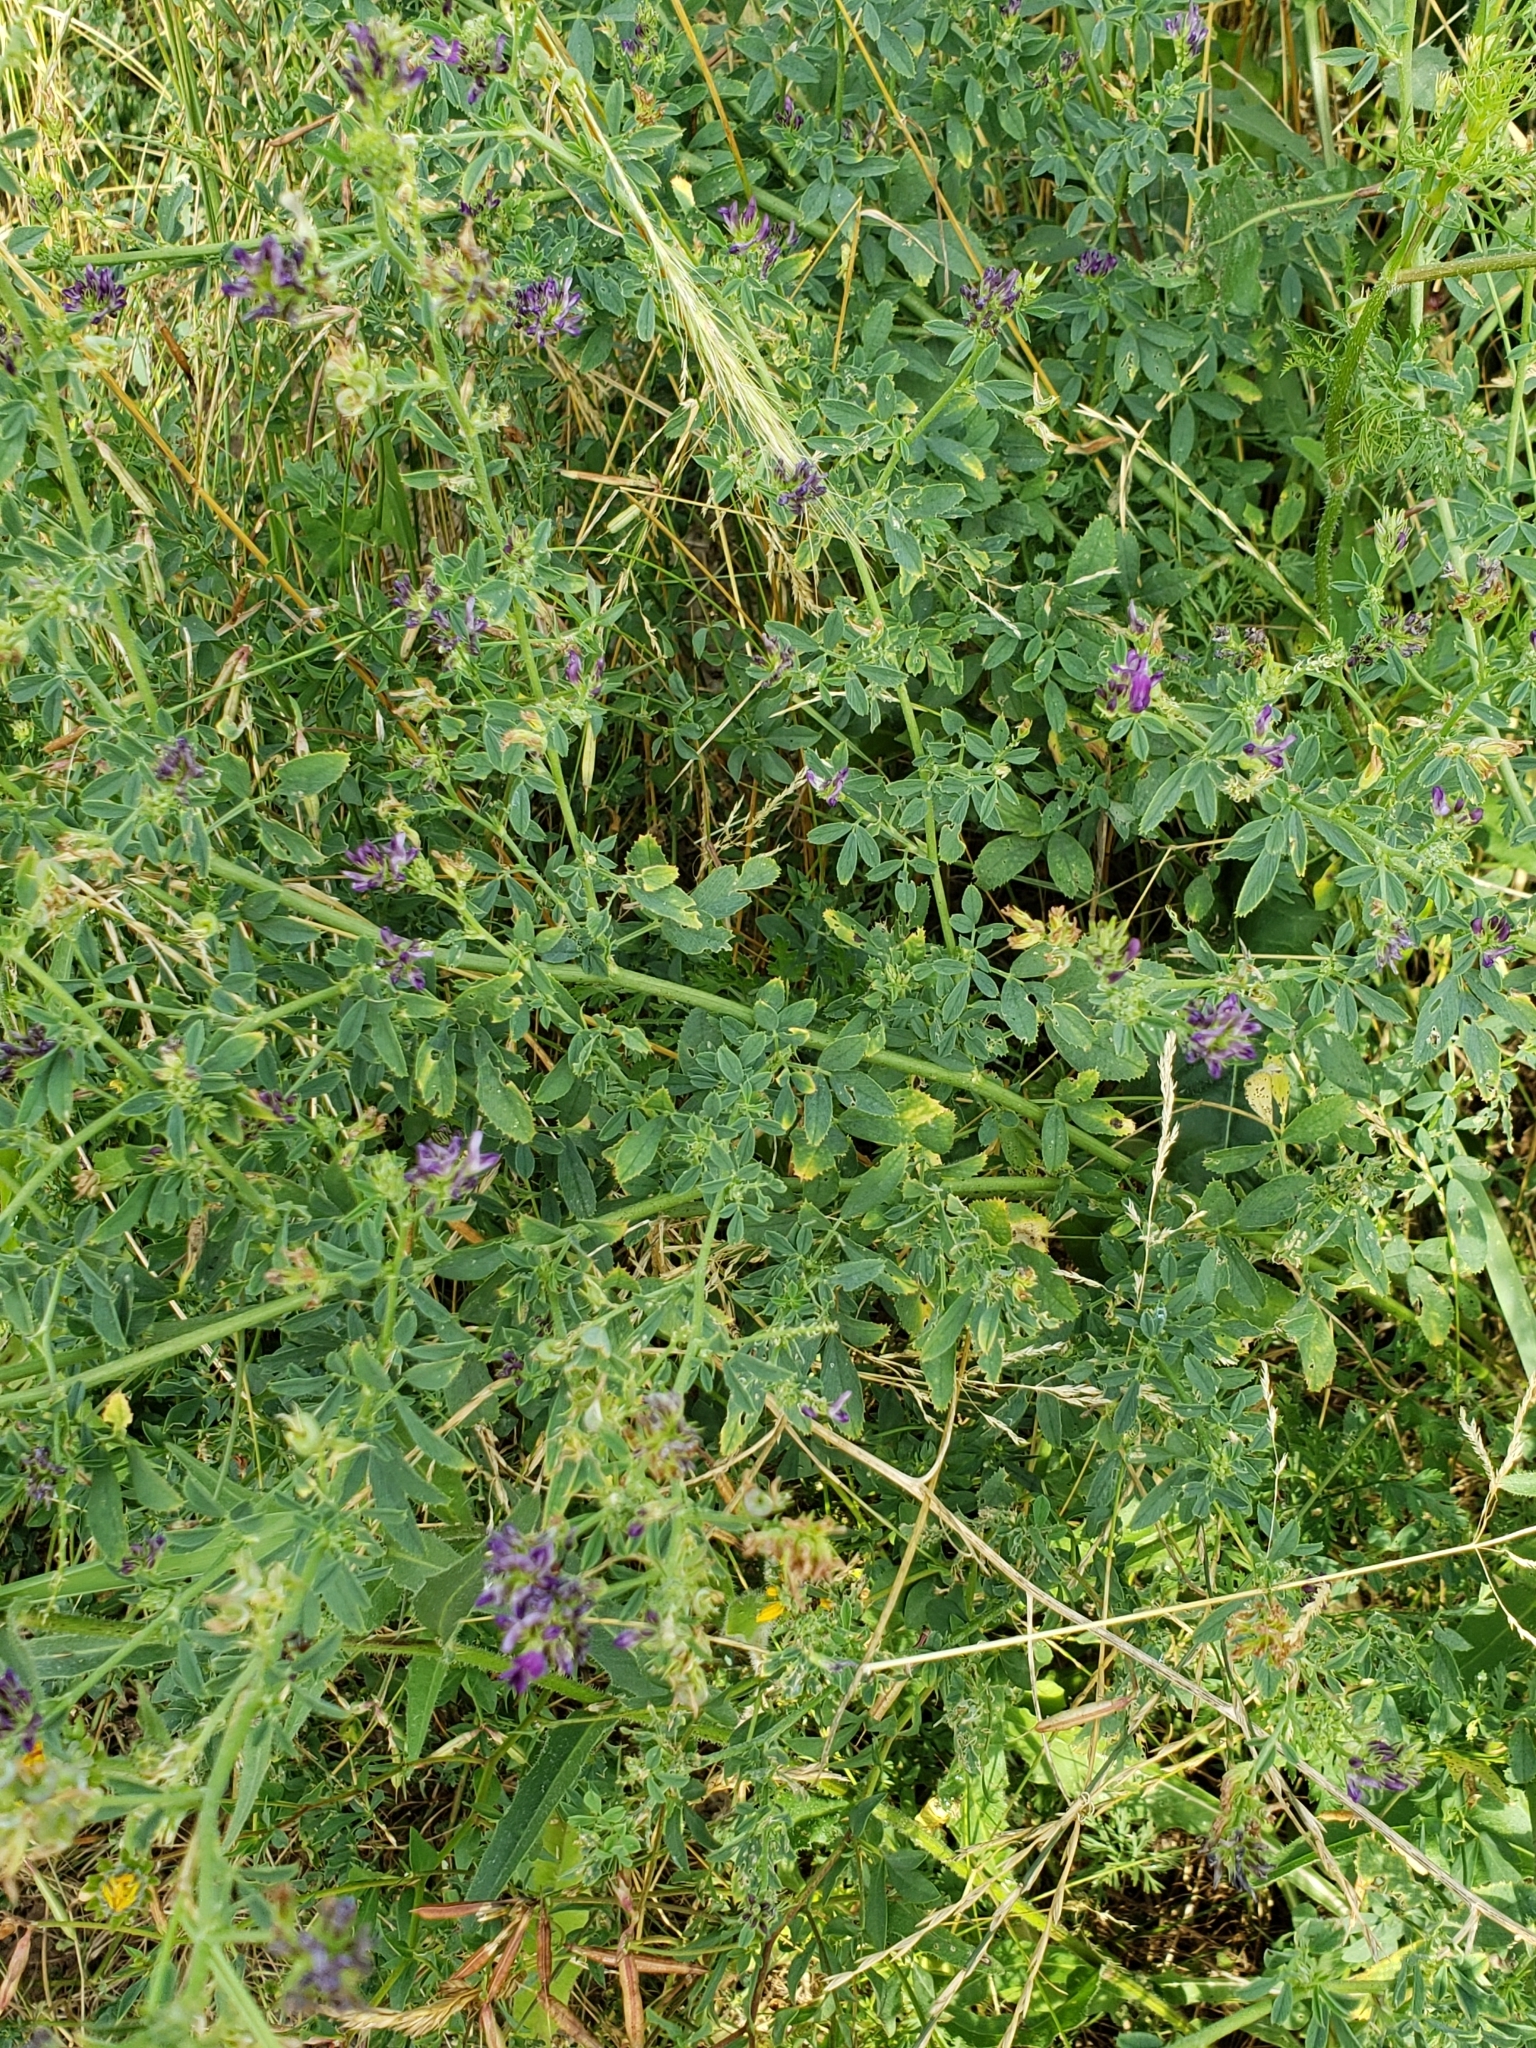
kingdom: Plantae
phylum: Tracheophyta
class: Magnoliopsida
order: Fabales
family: Fabaceae
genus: Medicago
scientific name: Medicago sativa
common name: Alfalfa
